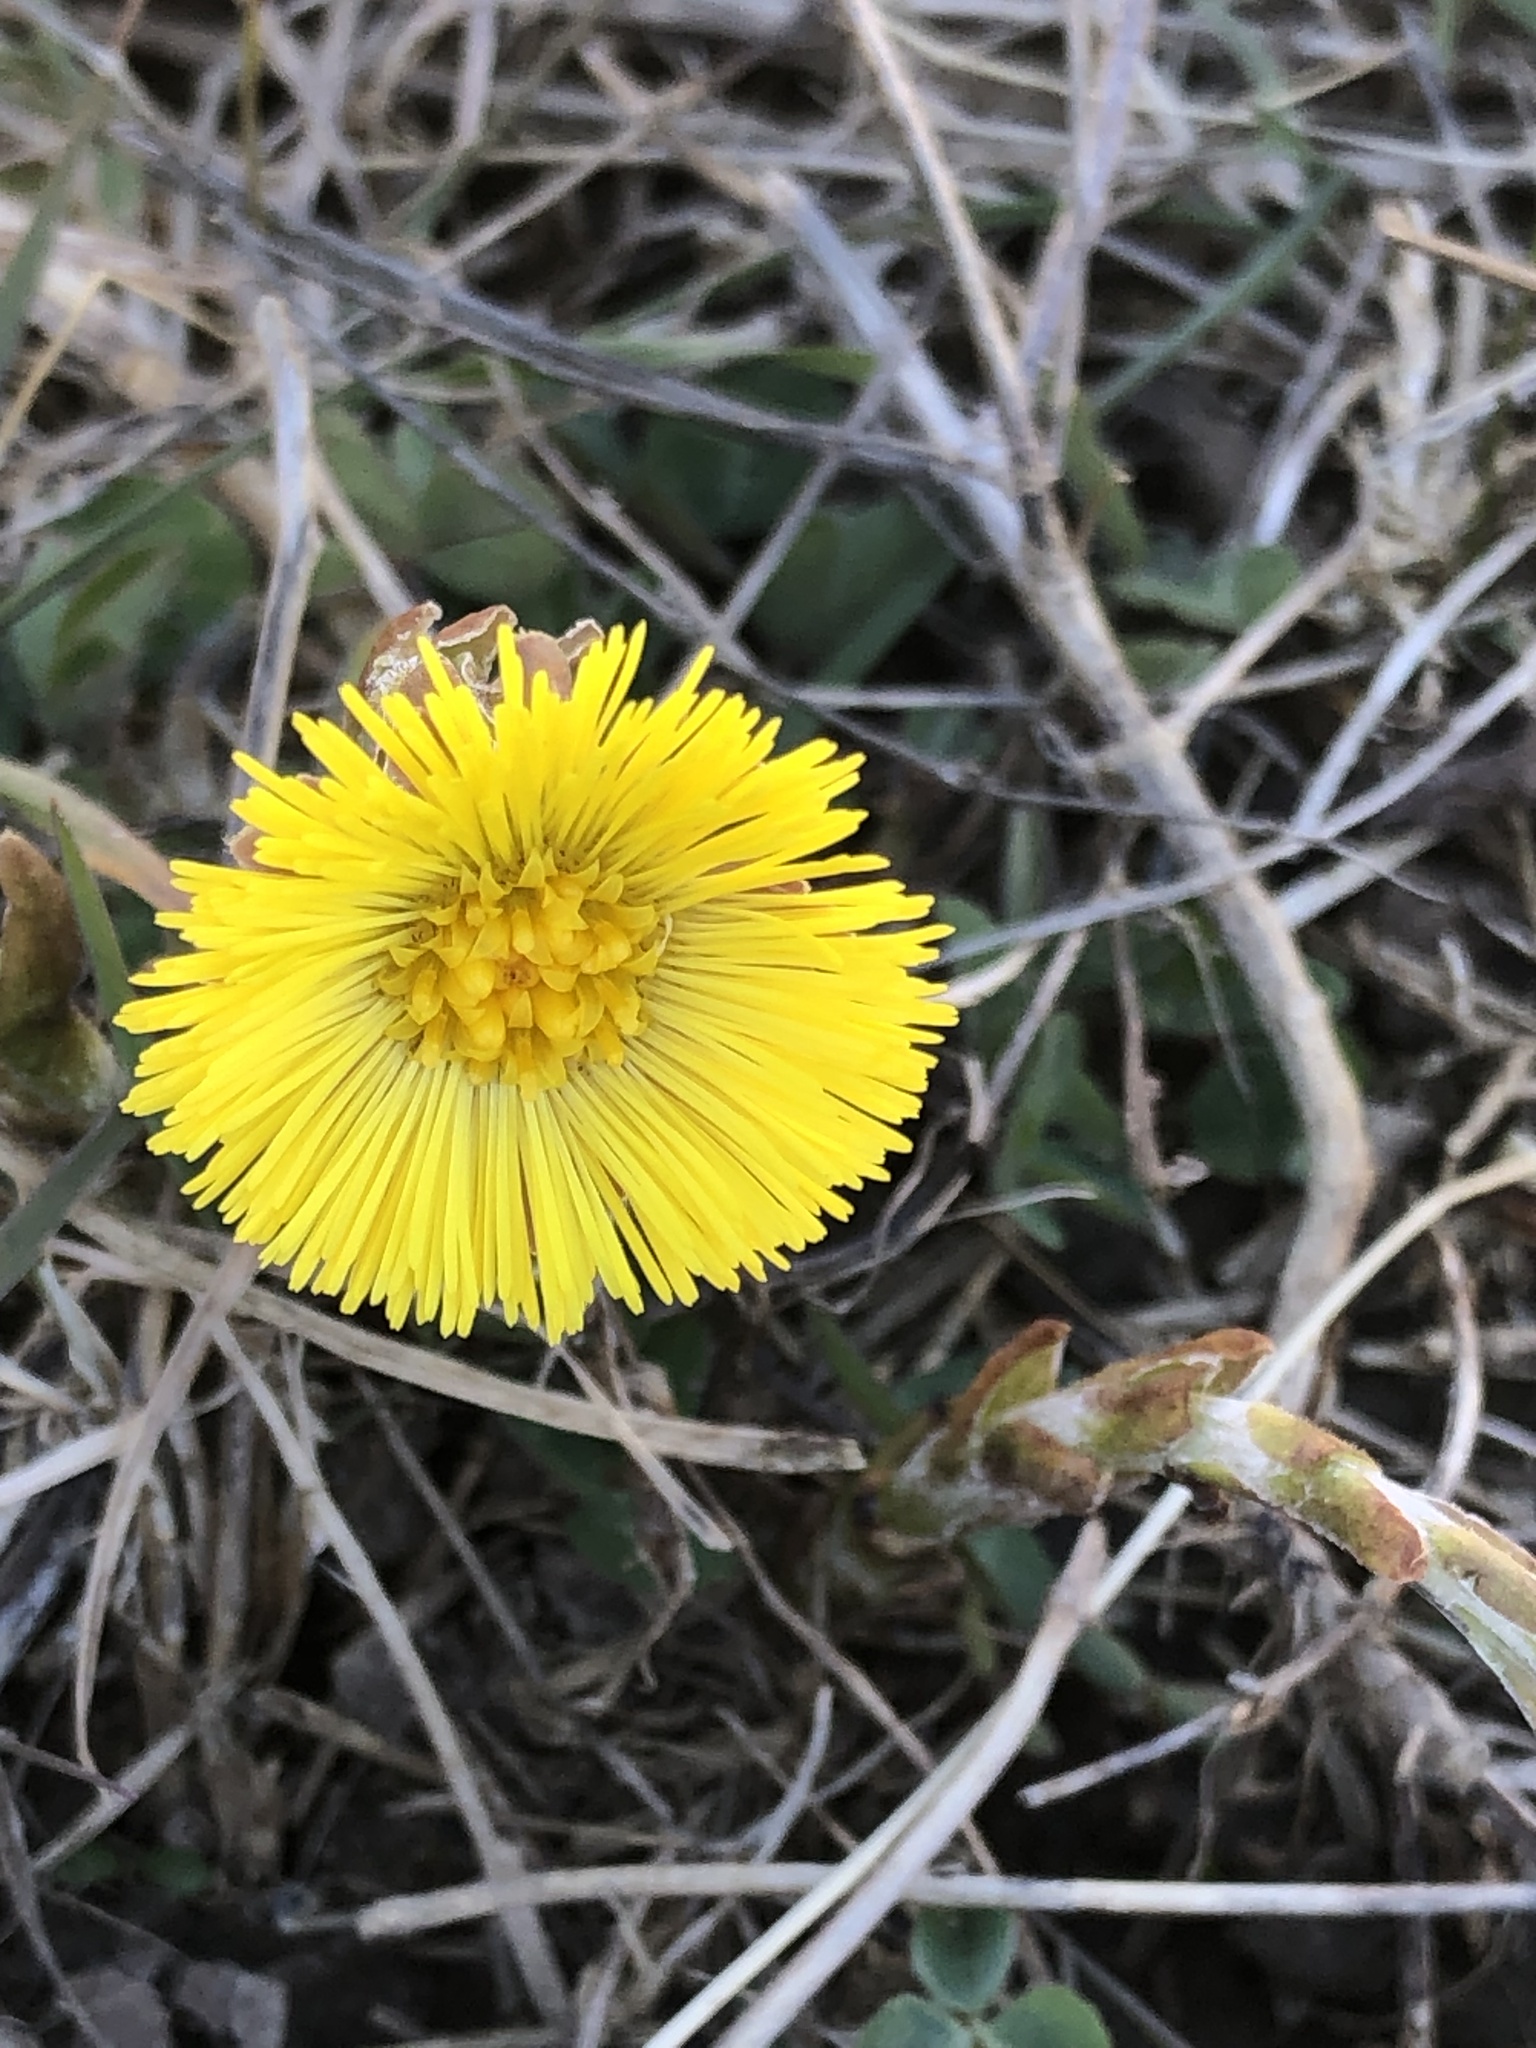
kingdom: Plantae
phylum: Tracheophyta
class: Magnoliopsida
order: Asterales
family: Asteraceae
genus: Tussilago
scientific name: Tussilago farfara
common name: Coltsfoot
